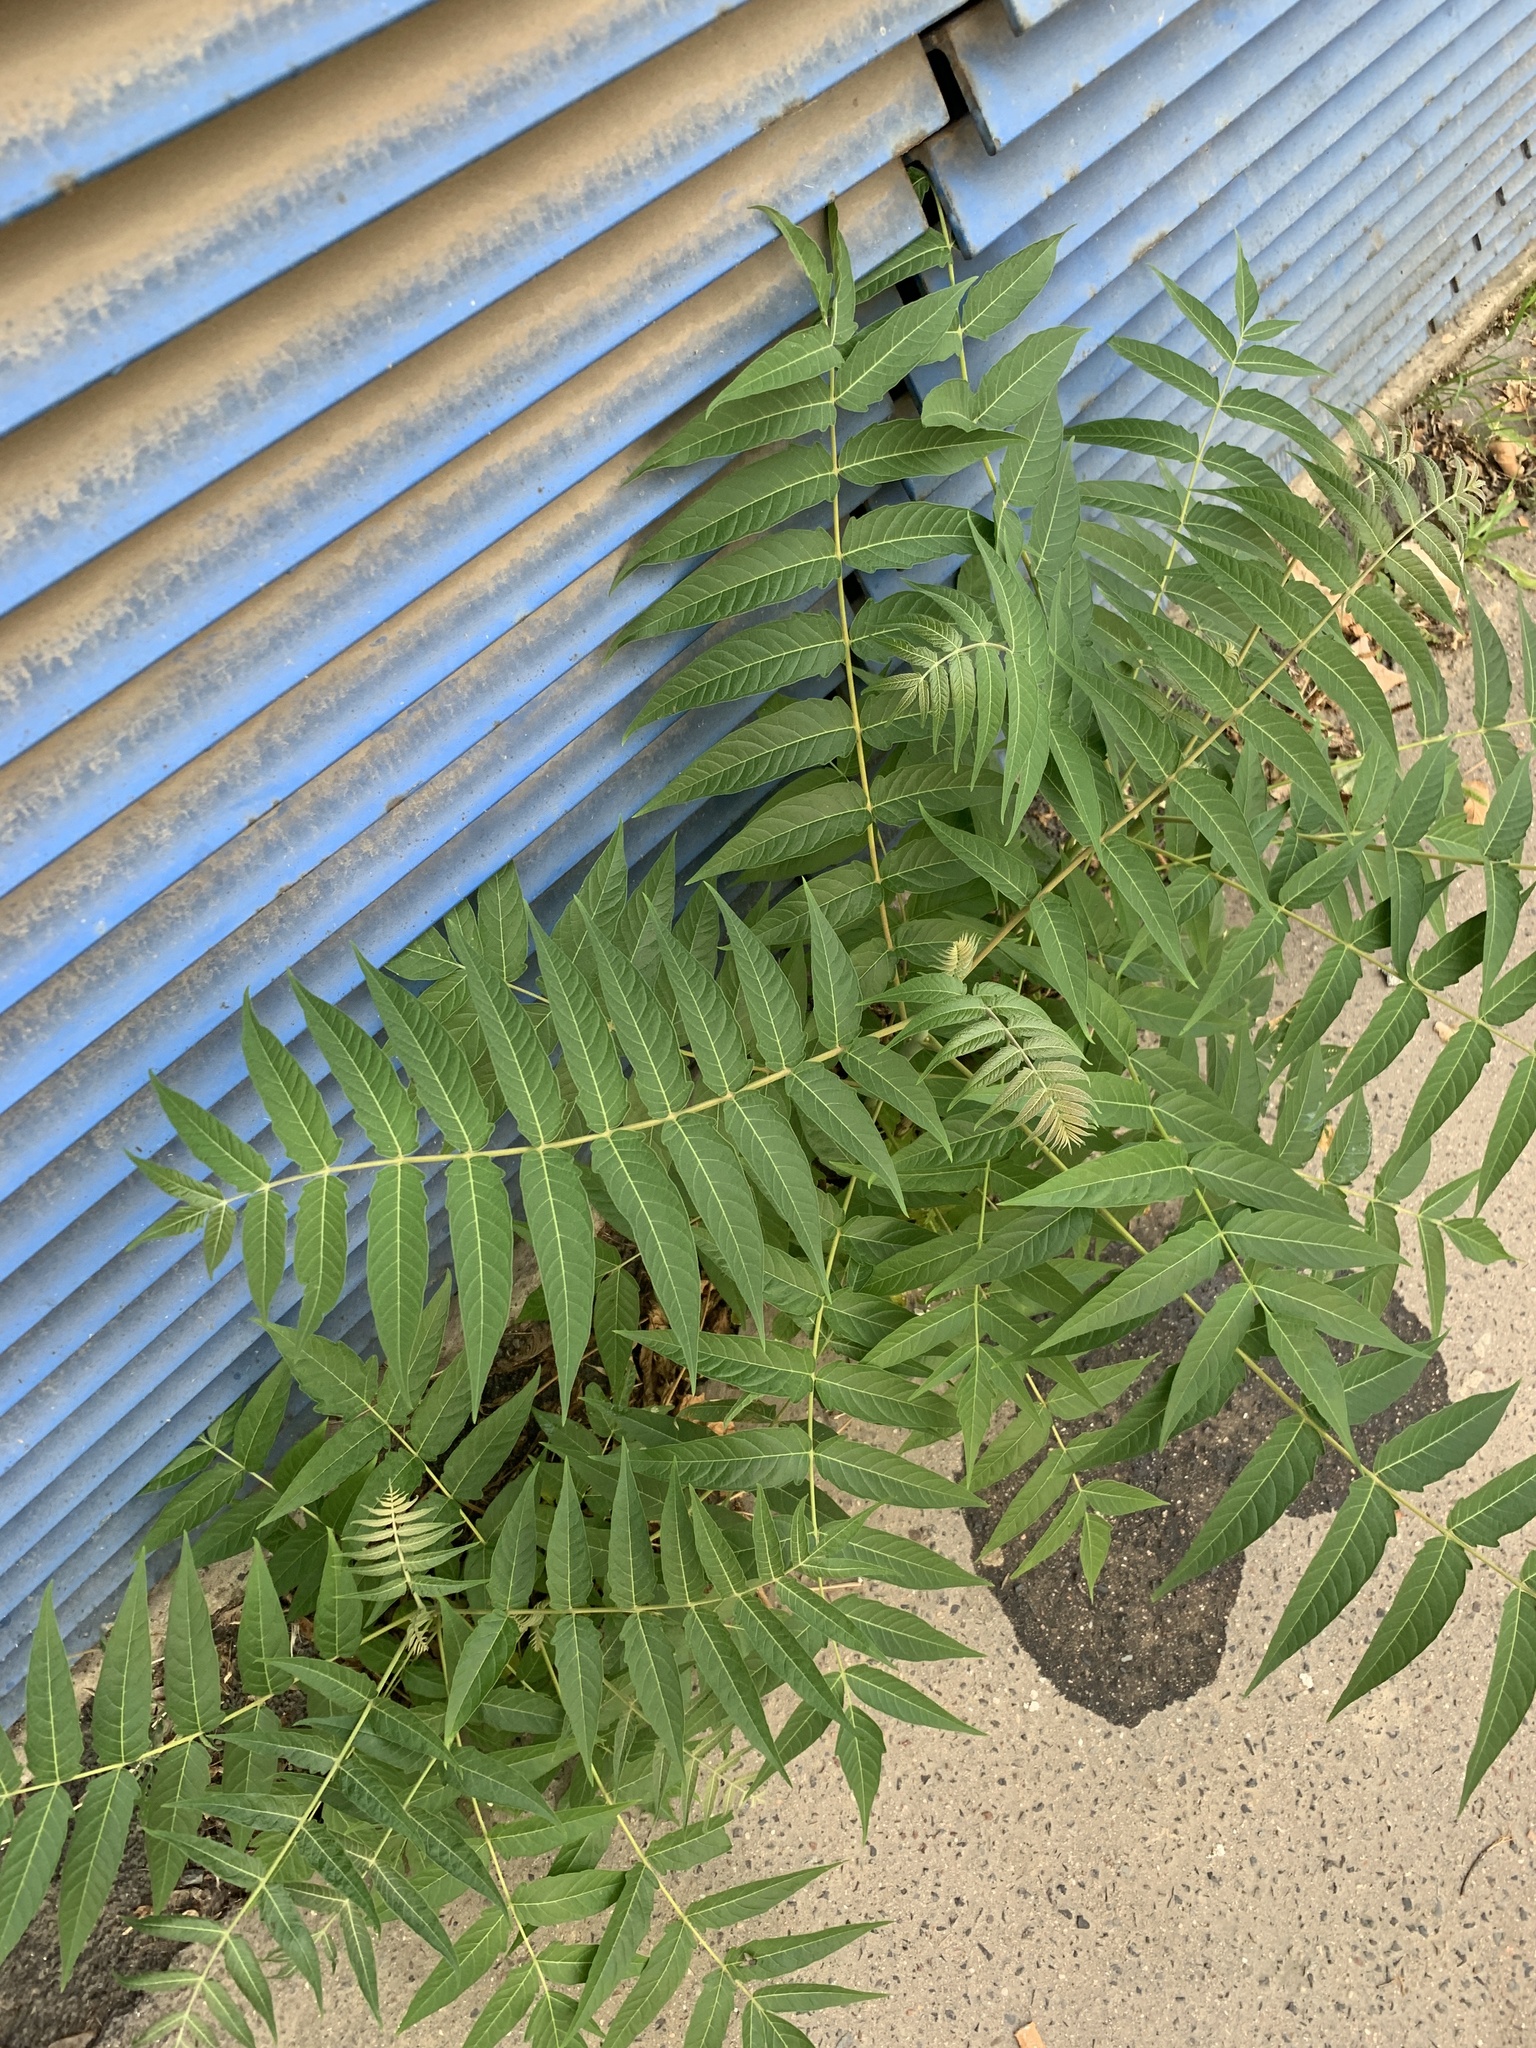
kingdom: Plantae
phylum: Tracheophyta
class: Magnoliopsida
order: Sapindales
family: Simaroubaceae
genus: Ailanthus
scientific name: Ailanthus altissima
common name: Tree-of-heaven
